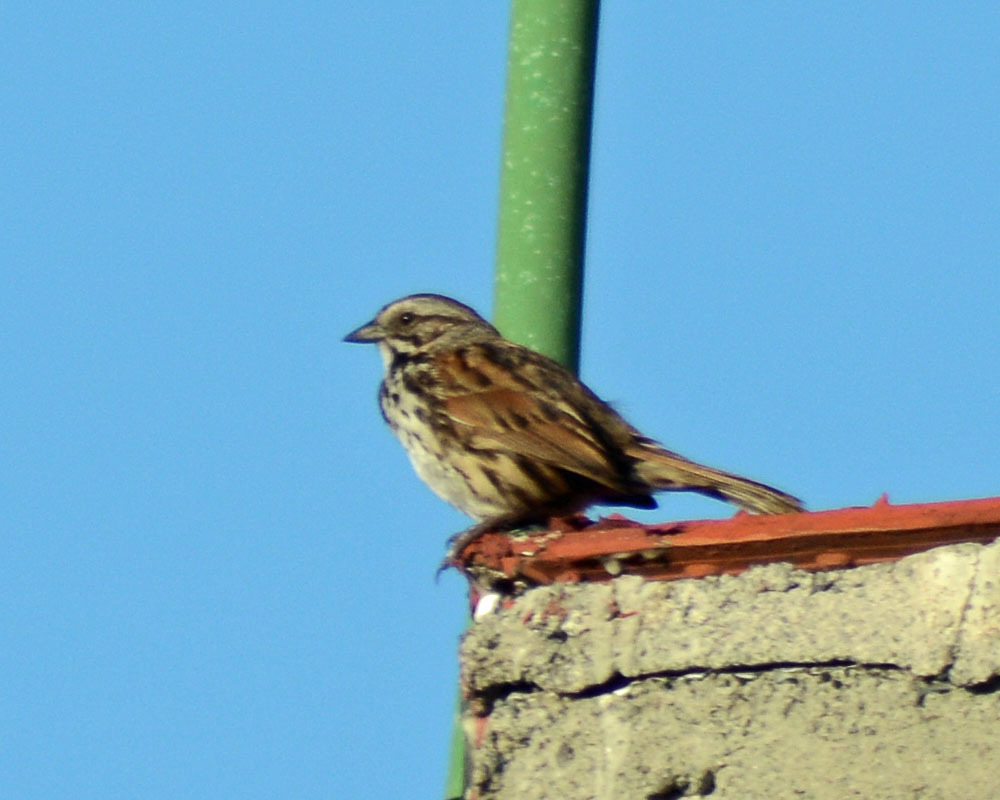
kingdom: Animalia
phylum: Chordata
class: Aves
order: Passeriformes
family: Passerellidae
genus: Melospiza
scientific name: Melospiza melodia
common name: Song sparrow
